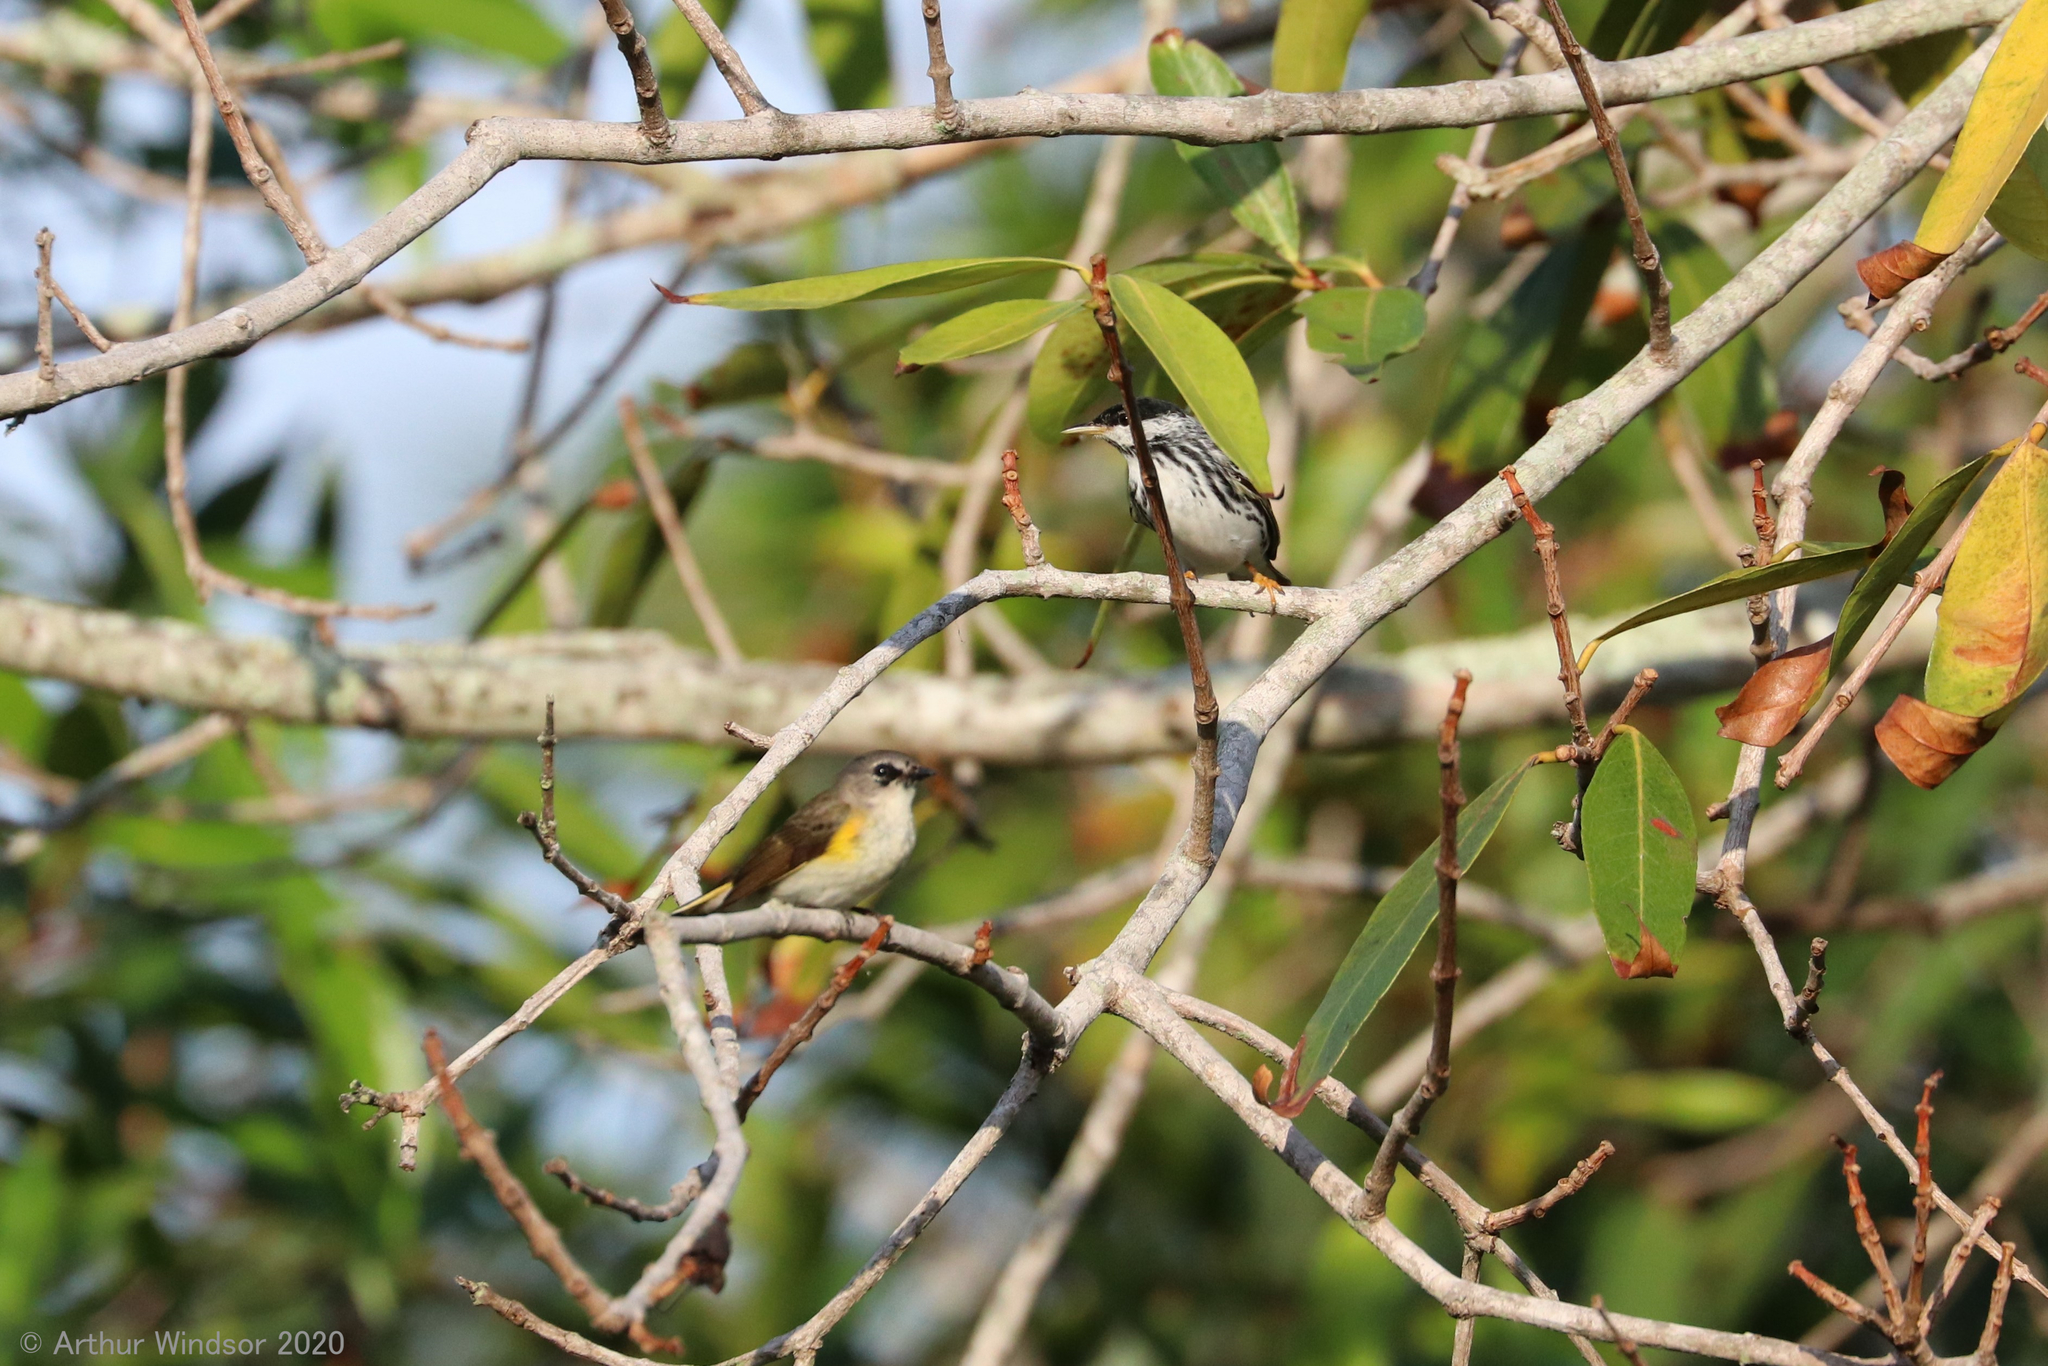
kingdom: Animalia
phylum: Chordata
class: Aves
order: Passeriformes
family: Parulidae
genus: Setophaga
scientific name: Setophaga striata
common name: Blackpoll warbler
